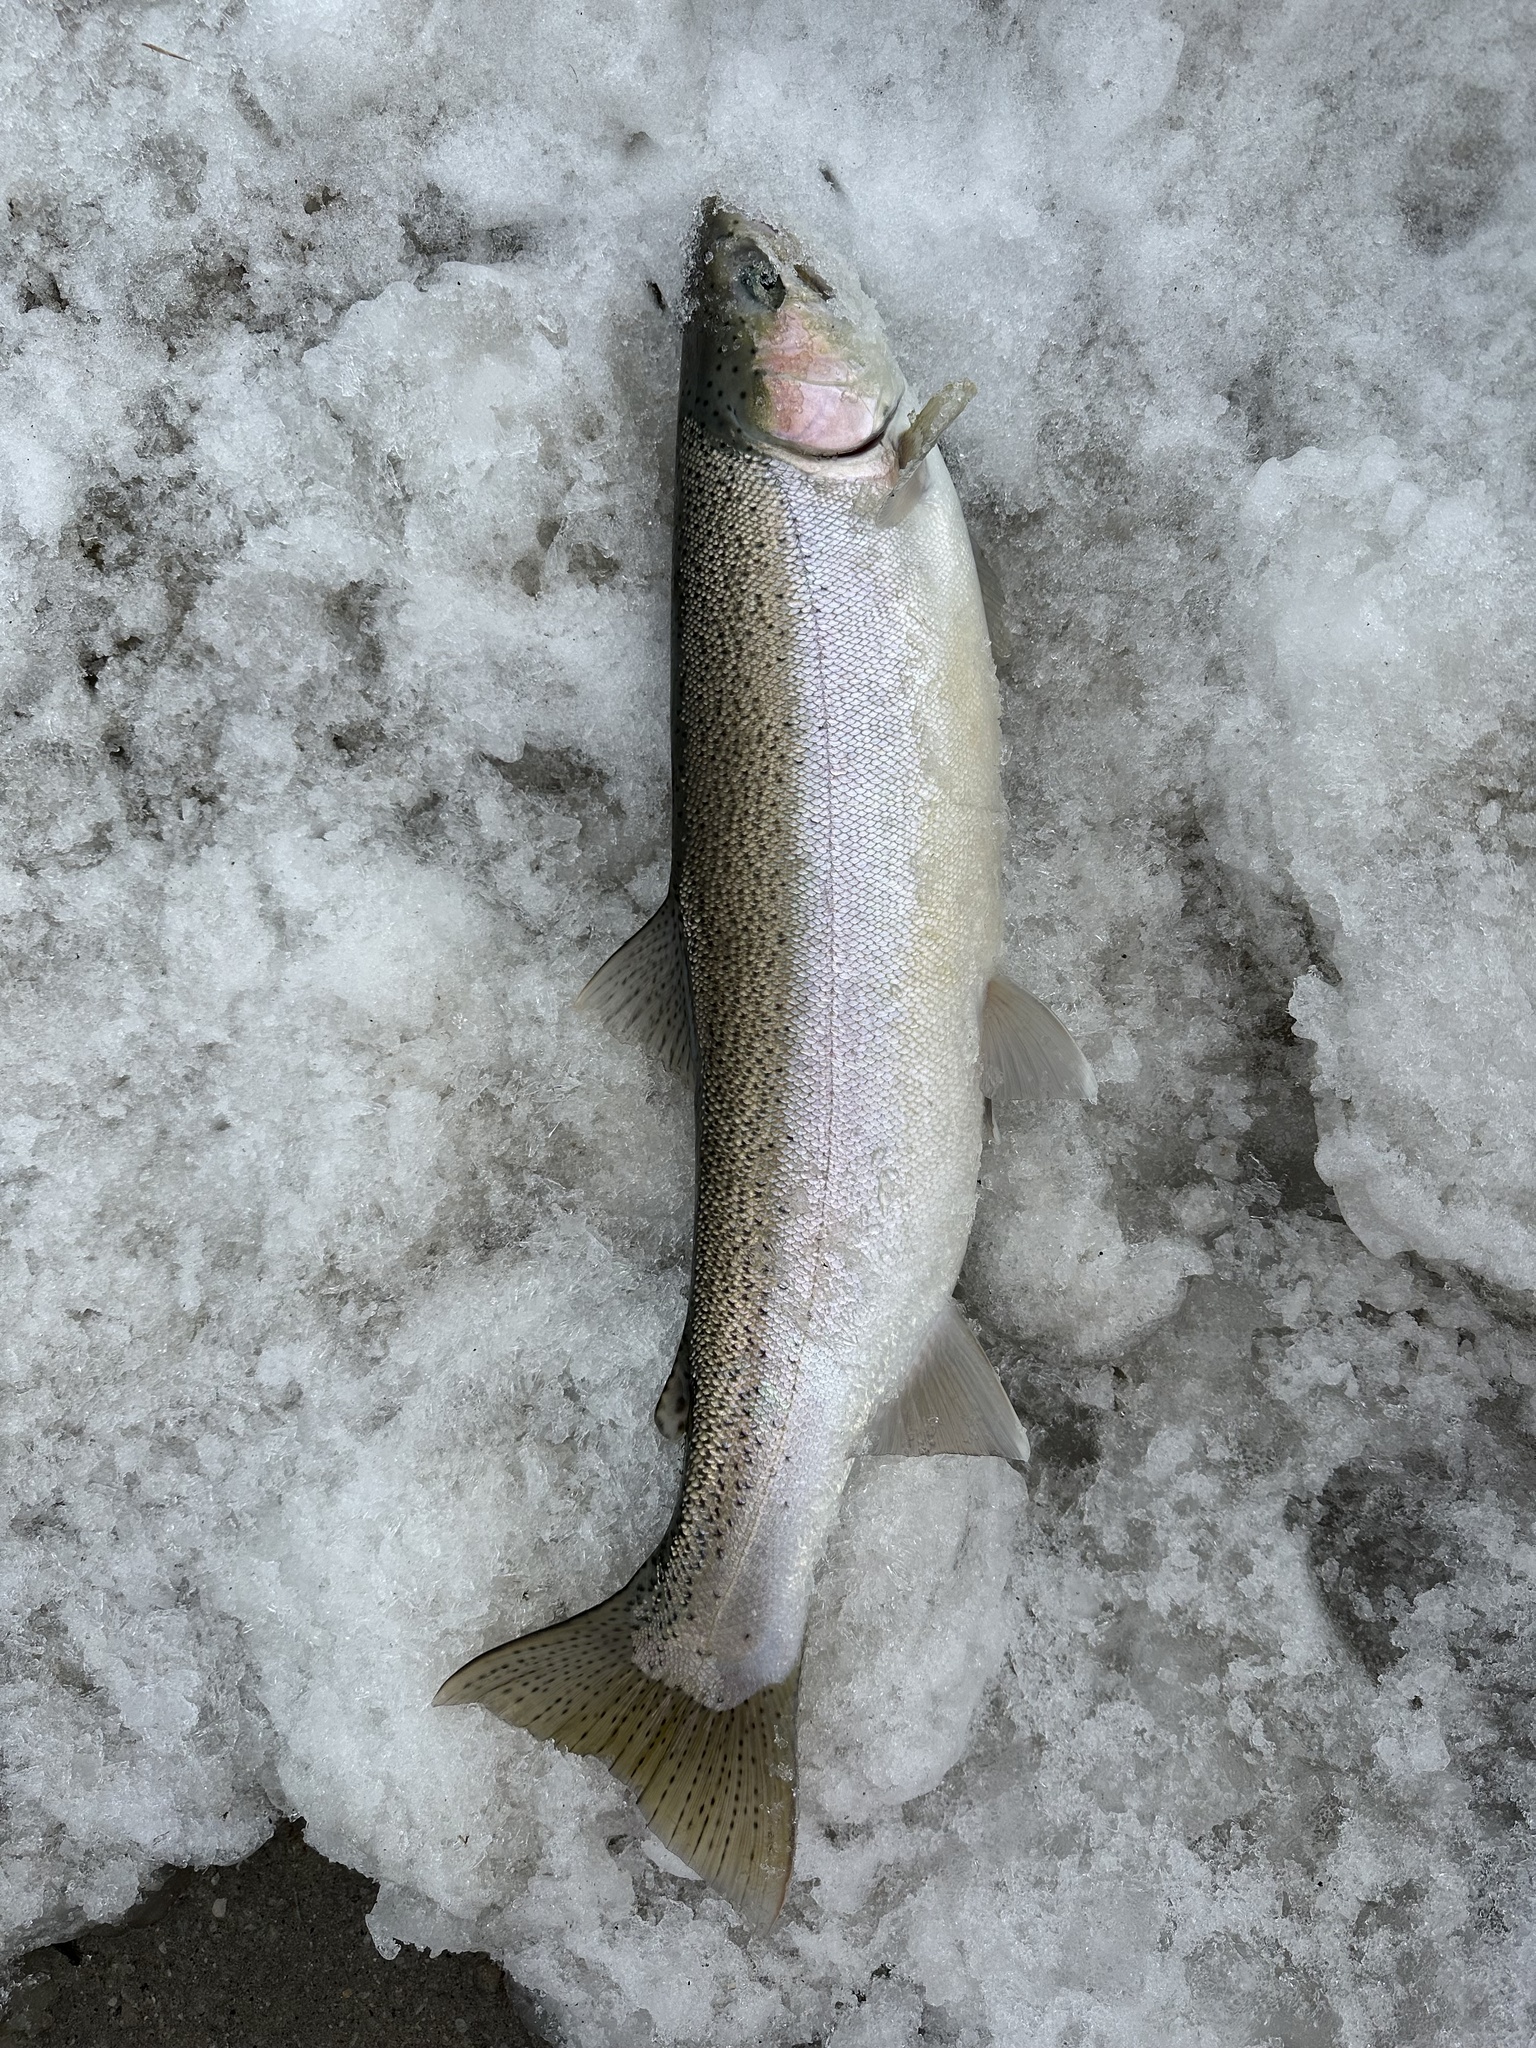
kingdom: Animalia
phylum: Chordata
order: Salmoniformes
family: Salmonidae
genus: Oncorhynchus
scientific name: Oncorhynchus mykiss
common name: Rainbow trout
